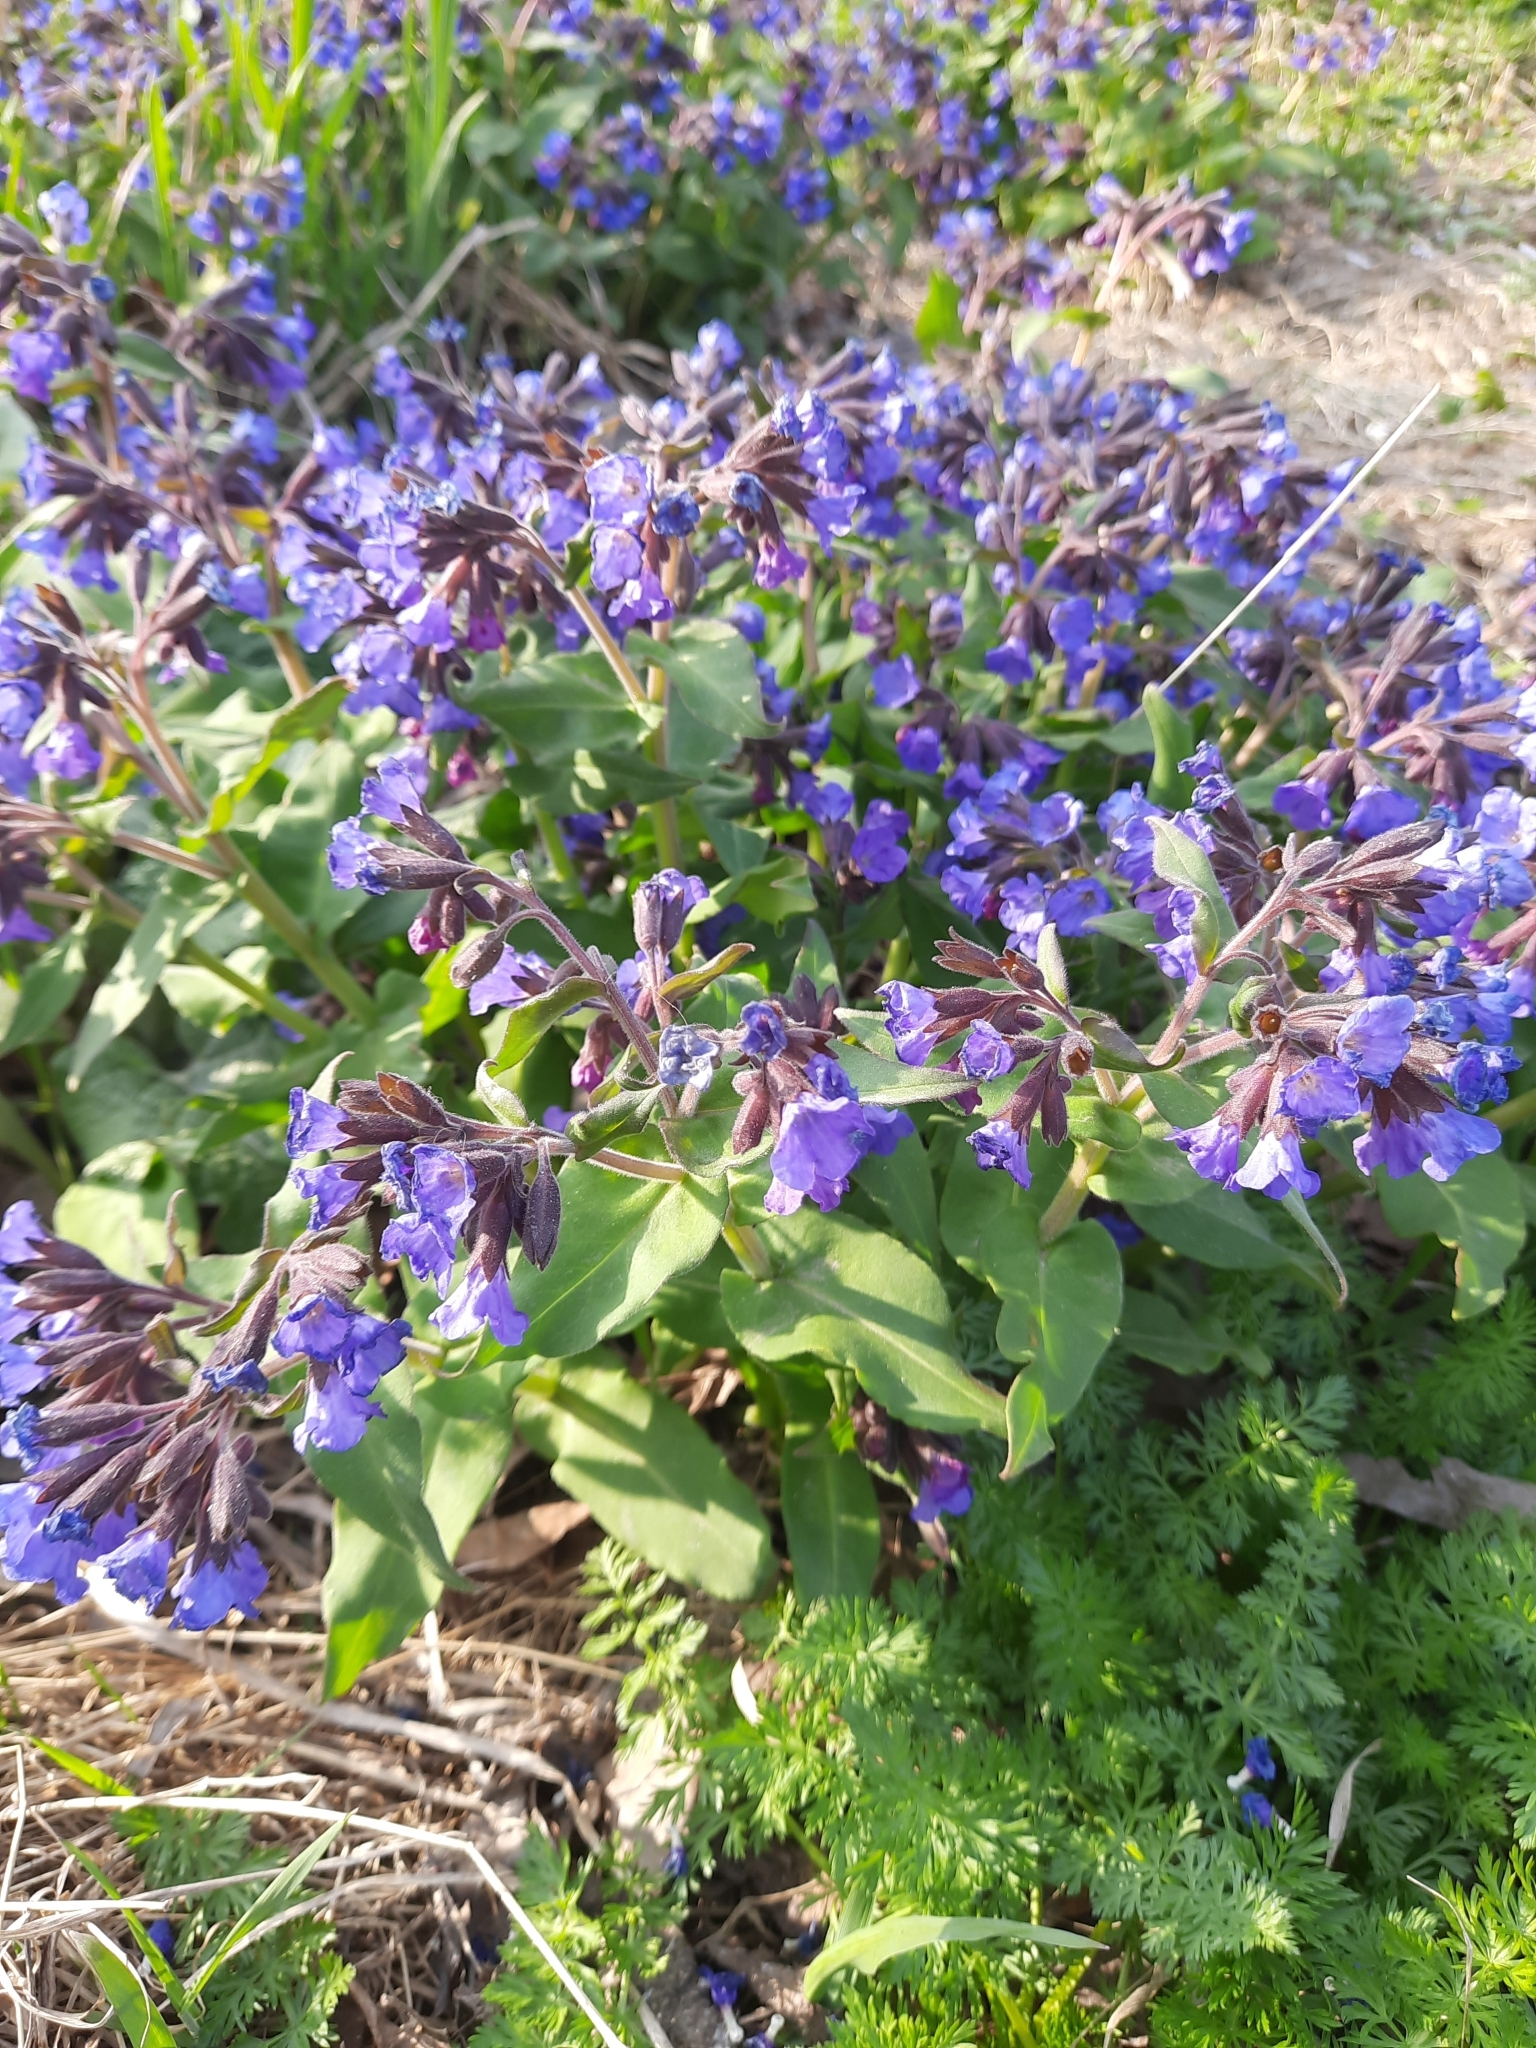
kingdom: Plantae
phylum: Tracheophyta
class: Magnoliopsida
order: Boraginales
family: Boraginaceae
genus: Pulmonaria
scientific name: Pulmonaria mollis
